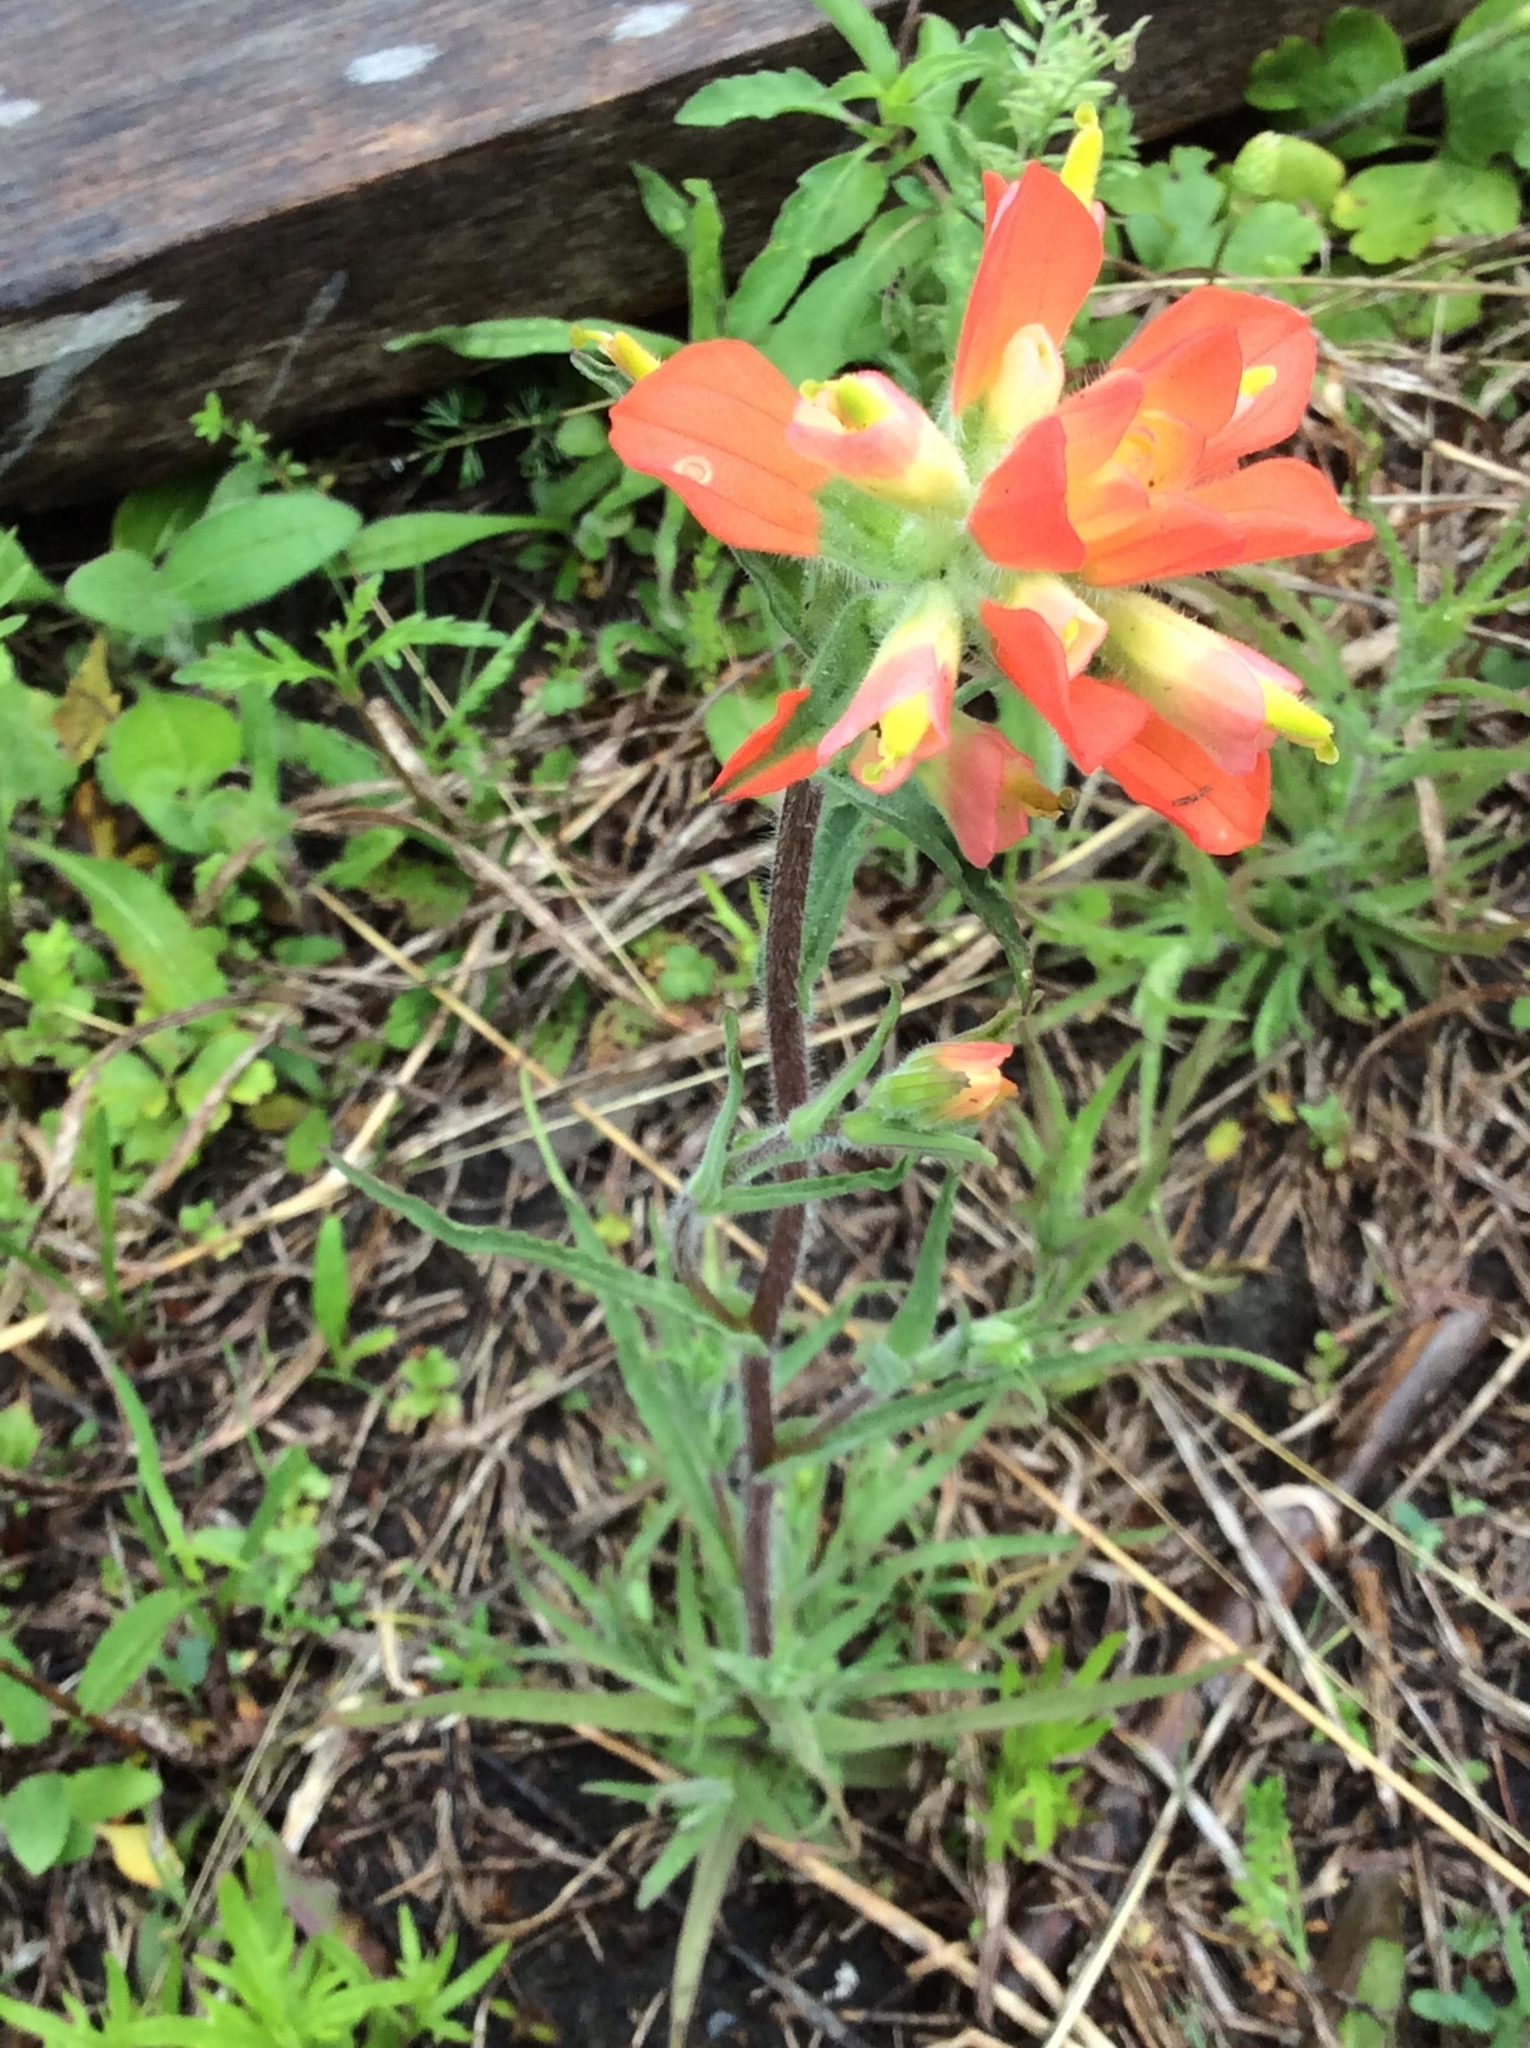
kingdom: Plantae
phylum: Tracheophyta
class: Magnoliopsida
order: Lamiales
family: Orobanchaceae
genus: Castilleja
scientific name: Castilleja indivisa
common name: Texas paintbrush
